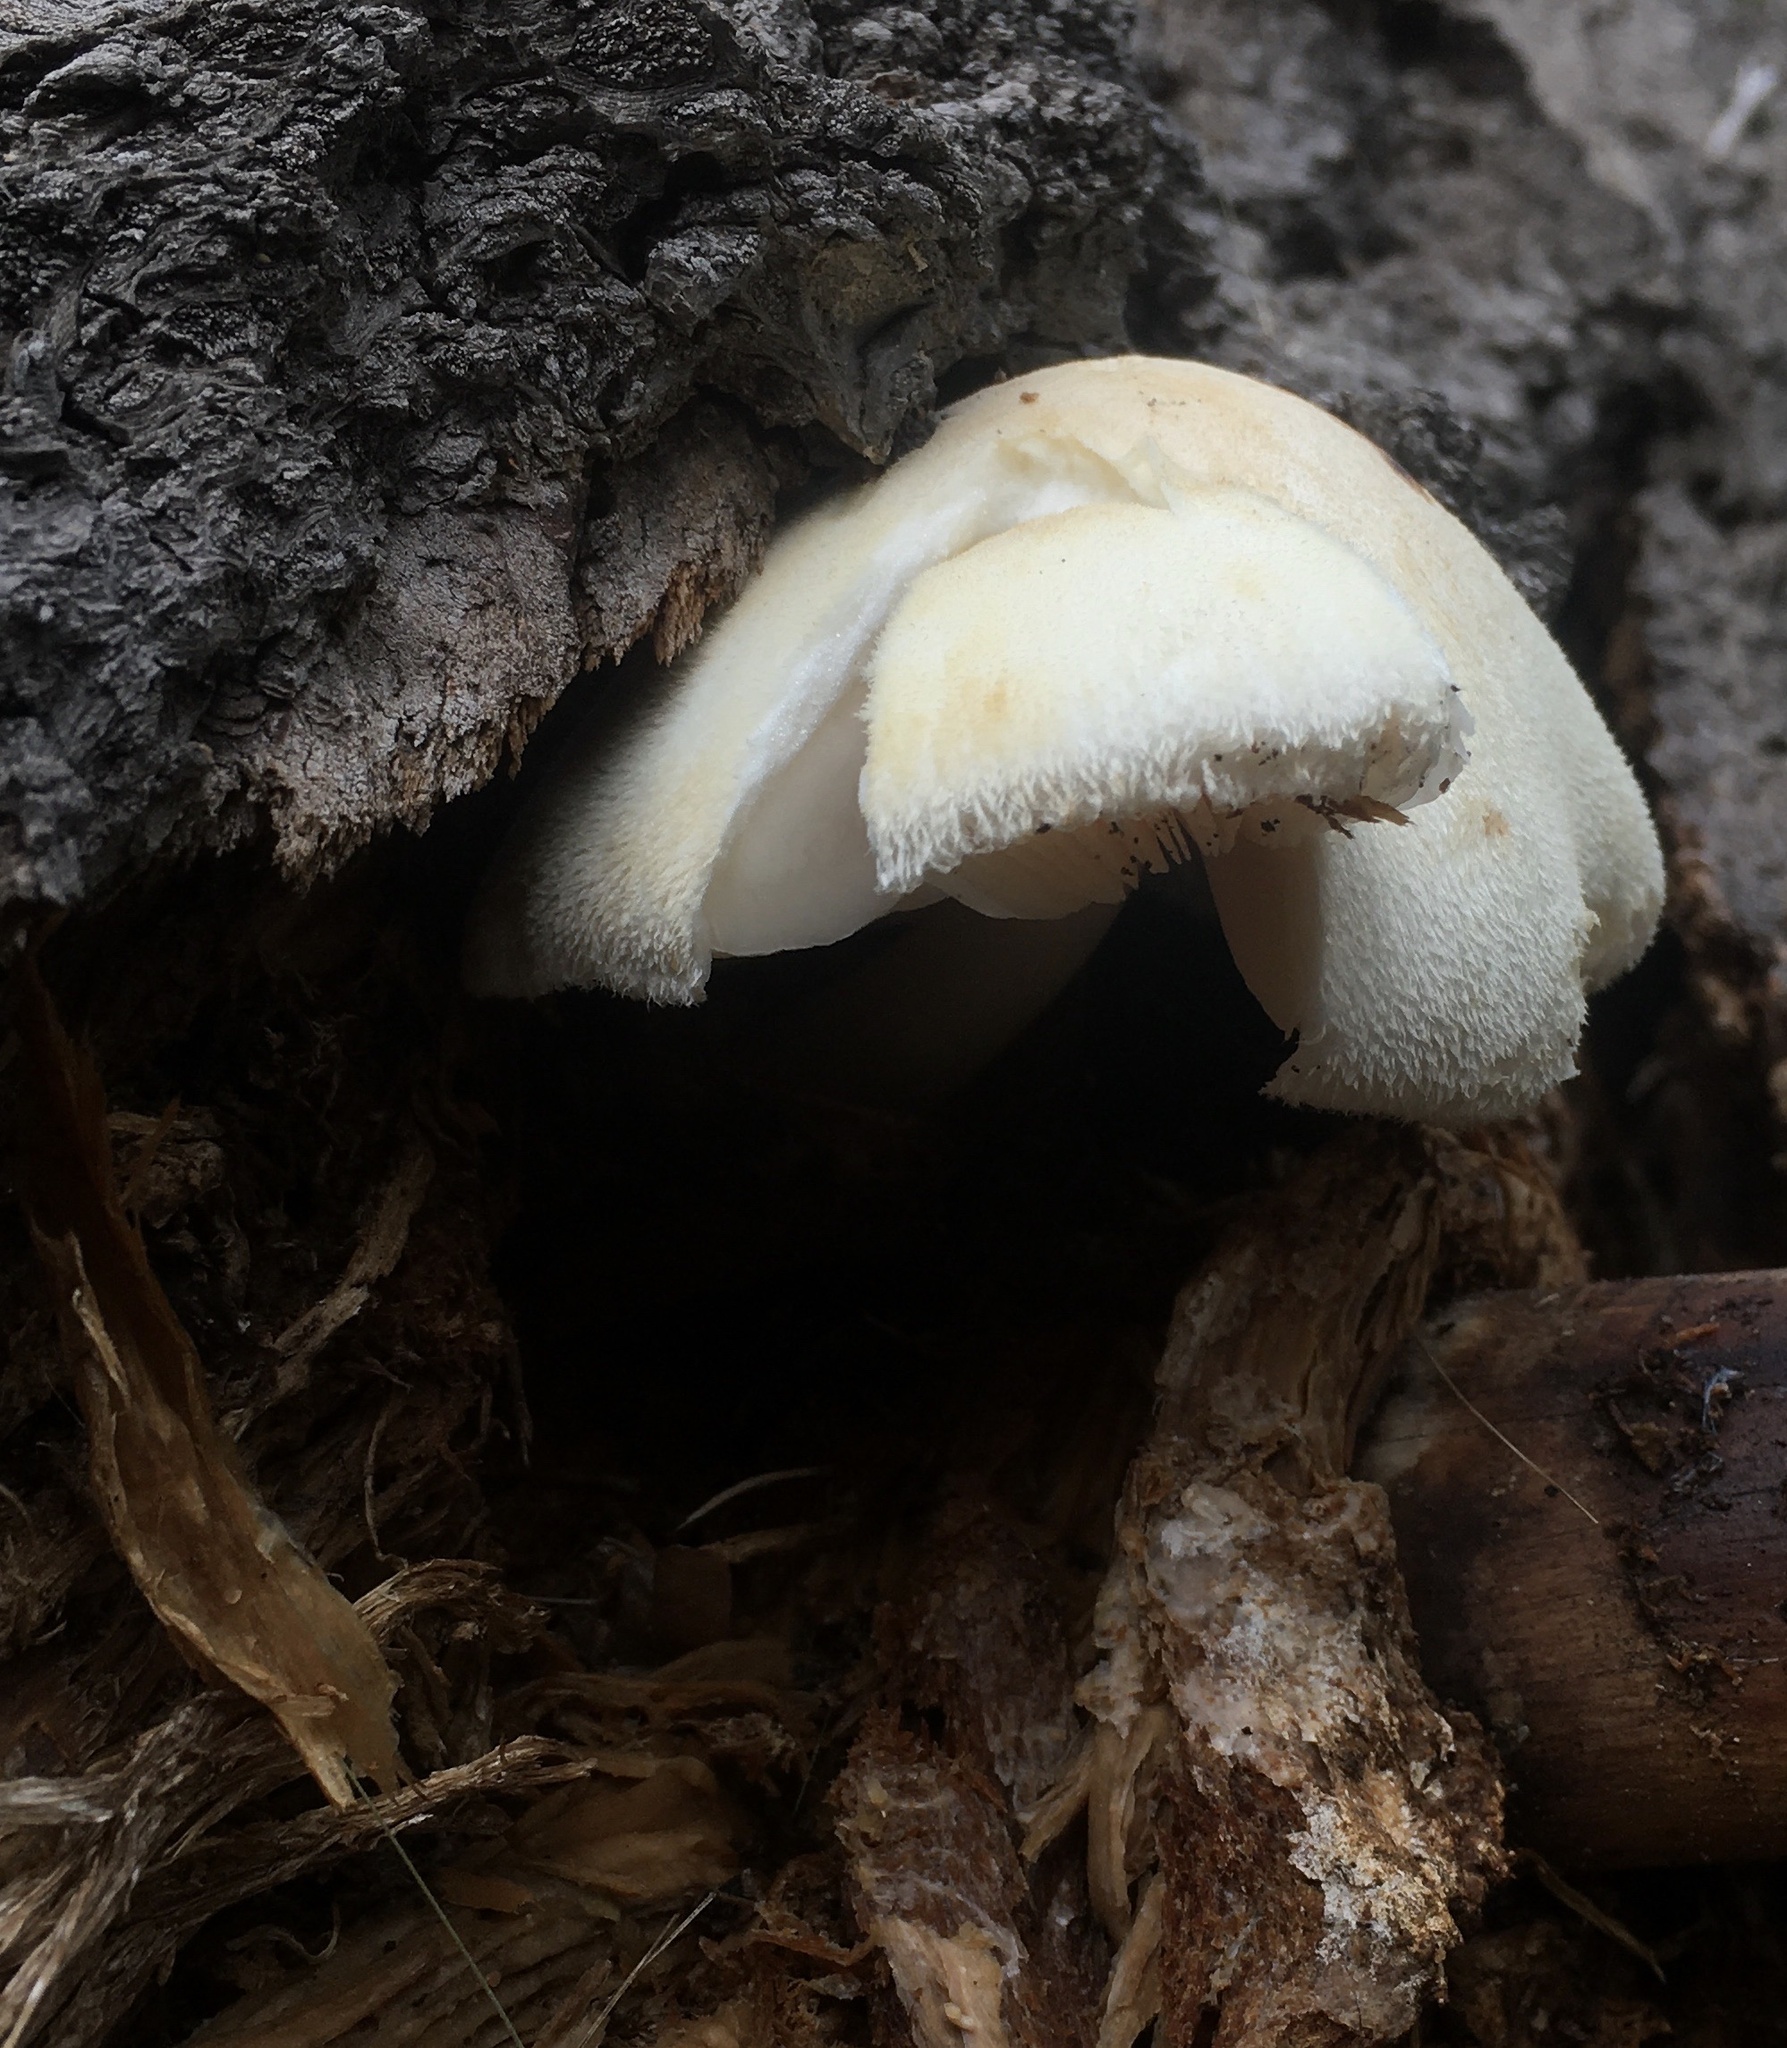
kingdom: Fungi
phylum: Basidiomycota
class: Agaricomycetes
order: Agaricales
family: Pluteaceae
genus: Volvariella
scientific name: Volvariella bombycina
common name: Silky rosegill
